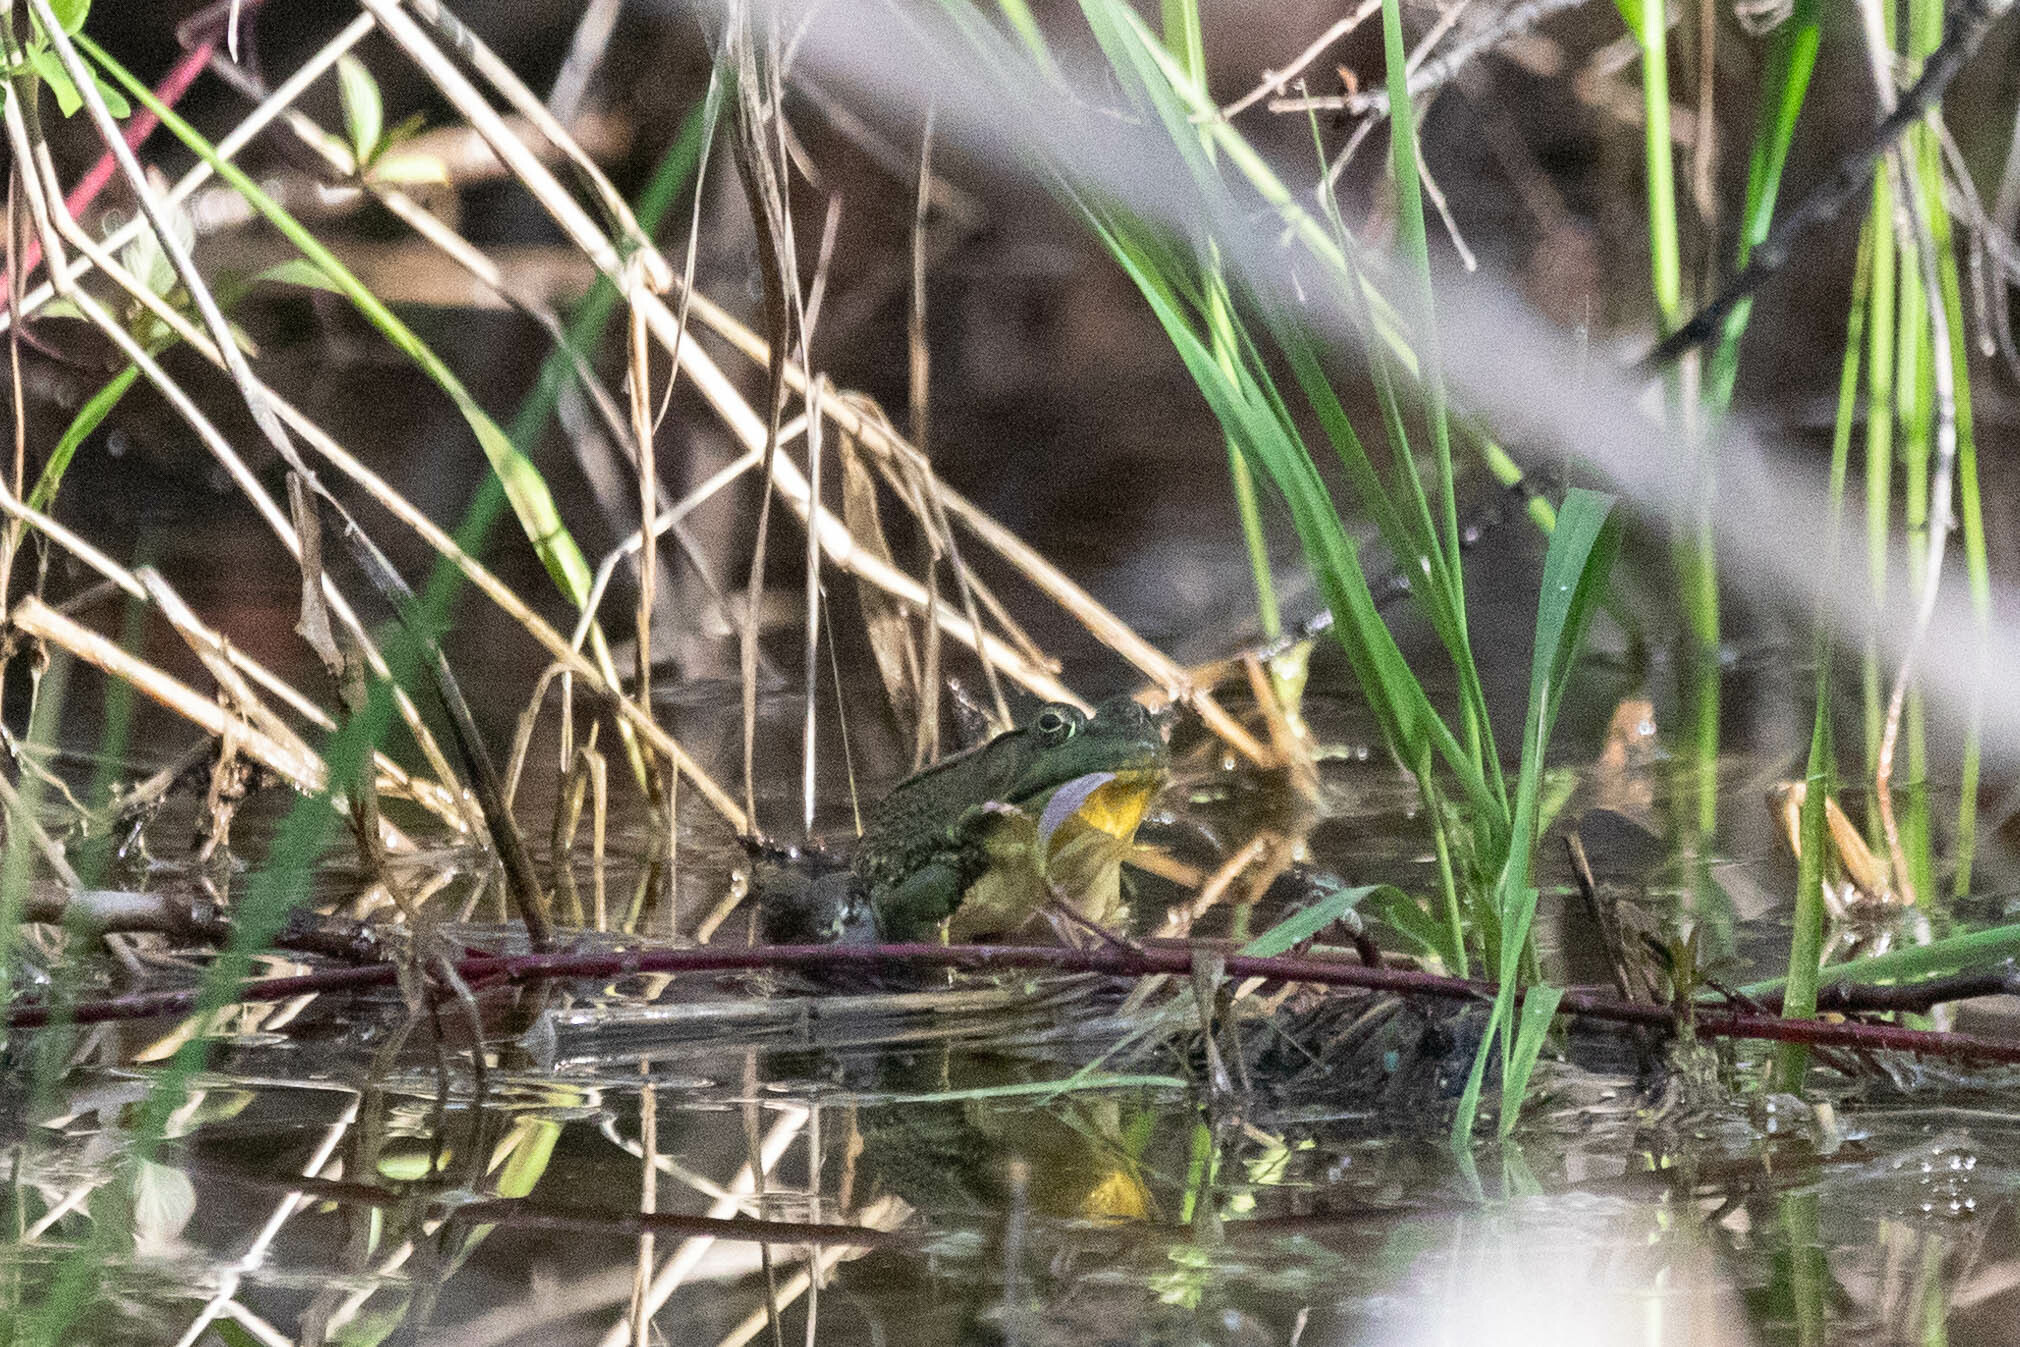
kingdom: Animalia
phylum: Chordata
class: Amphibia
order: Anura
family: Ranidae
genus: Lithobates
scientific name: Lithobates clamitans
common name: Green frog
